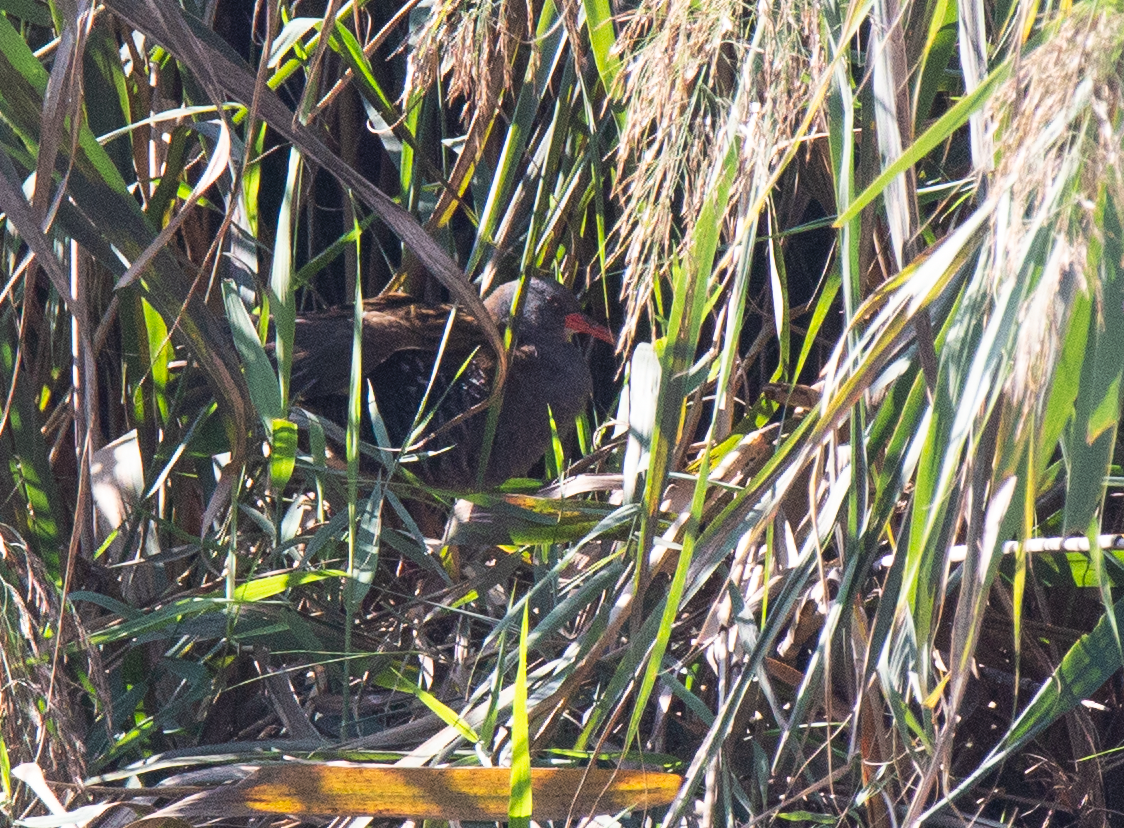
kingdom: Animalia
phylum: Chordata
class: Aves
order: Gruiformes
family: Rallidae
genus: Rallus
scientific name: Rallus aquaticus
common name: Water rail
